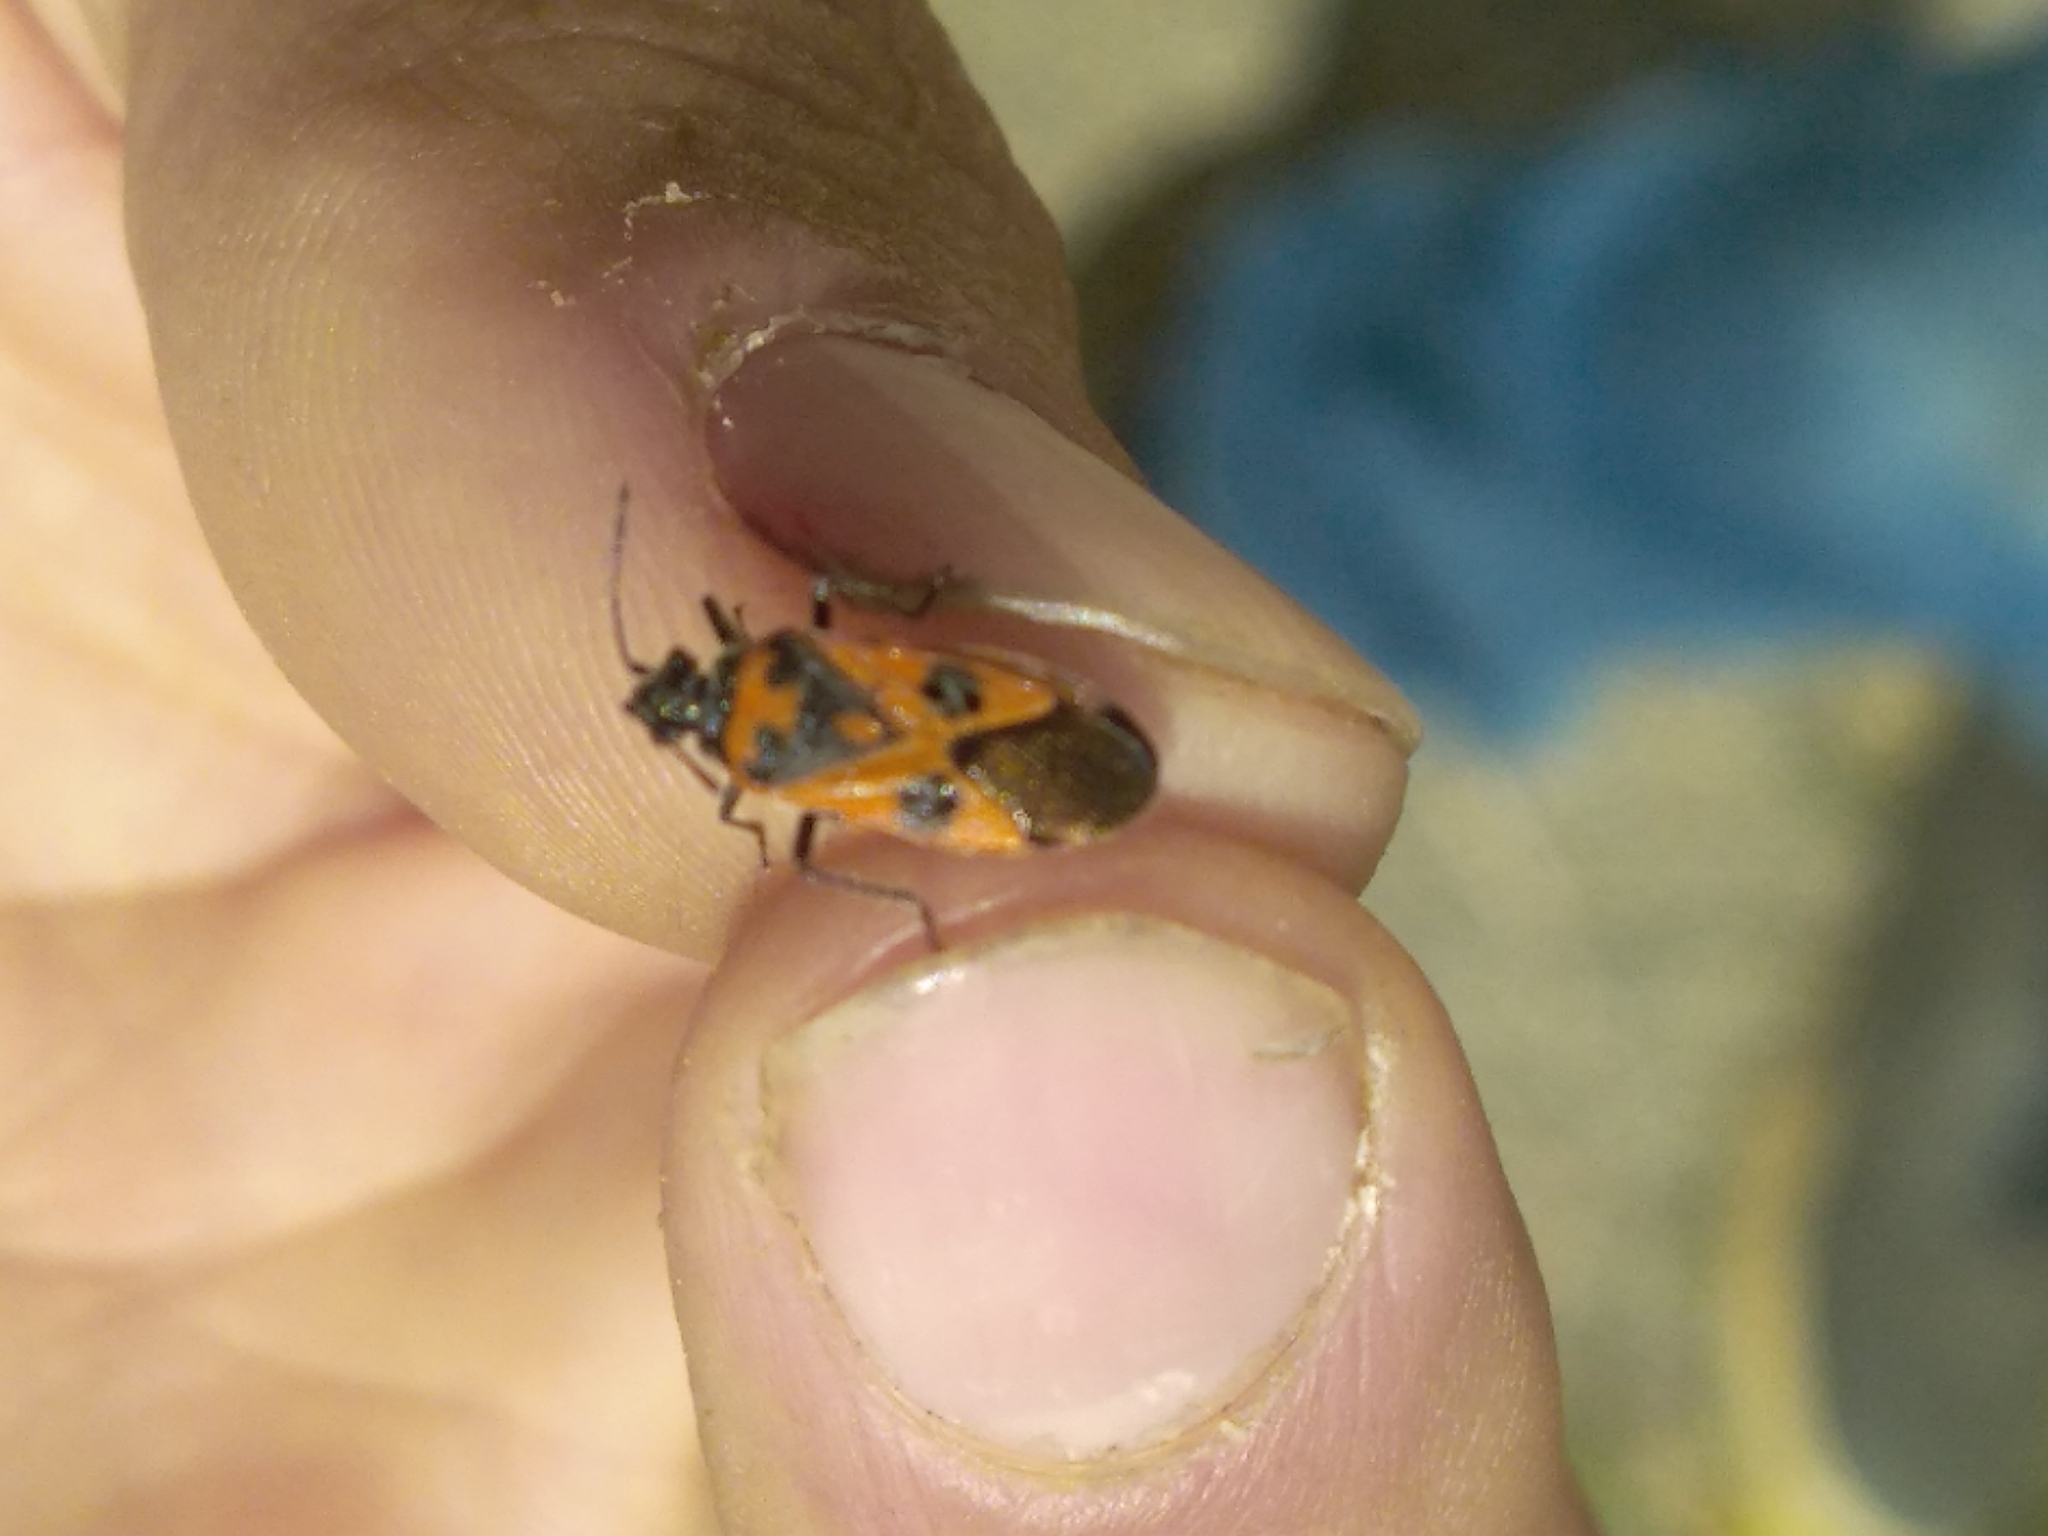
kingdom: Animalia
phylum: Arthropoda
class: Insecta
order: Hemiptera
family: Rhopalidae
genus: Corizus
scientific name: Corizus hyoscyami
